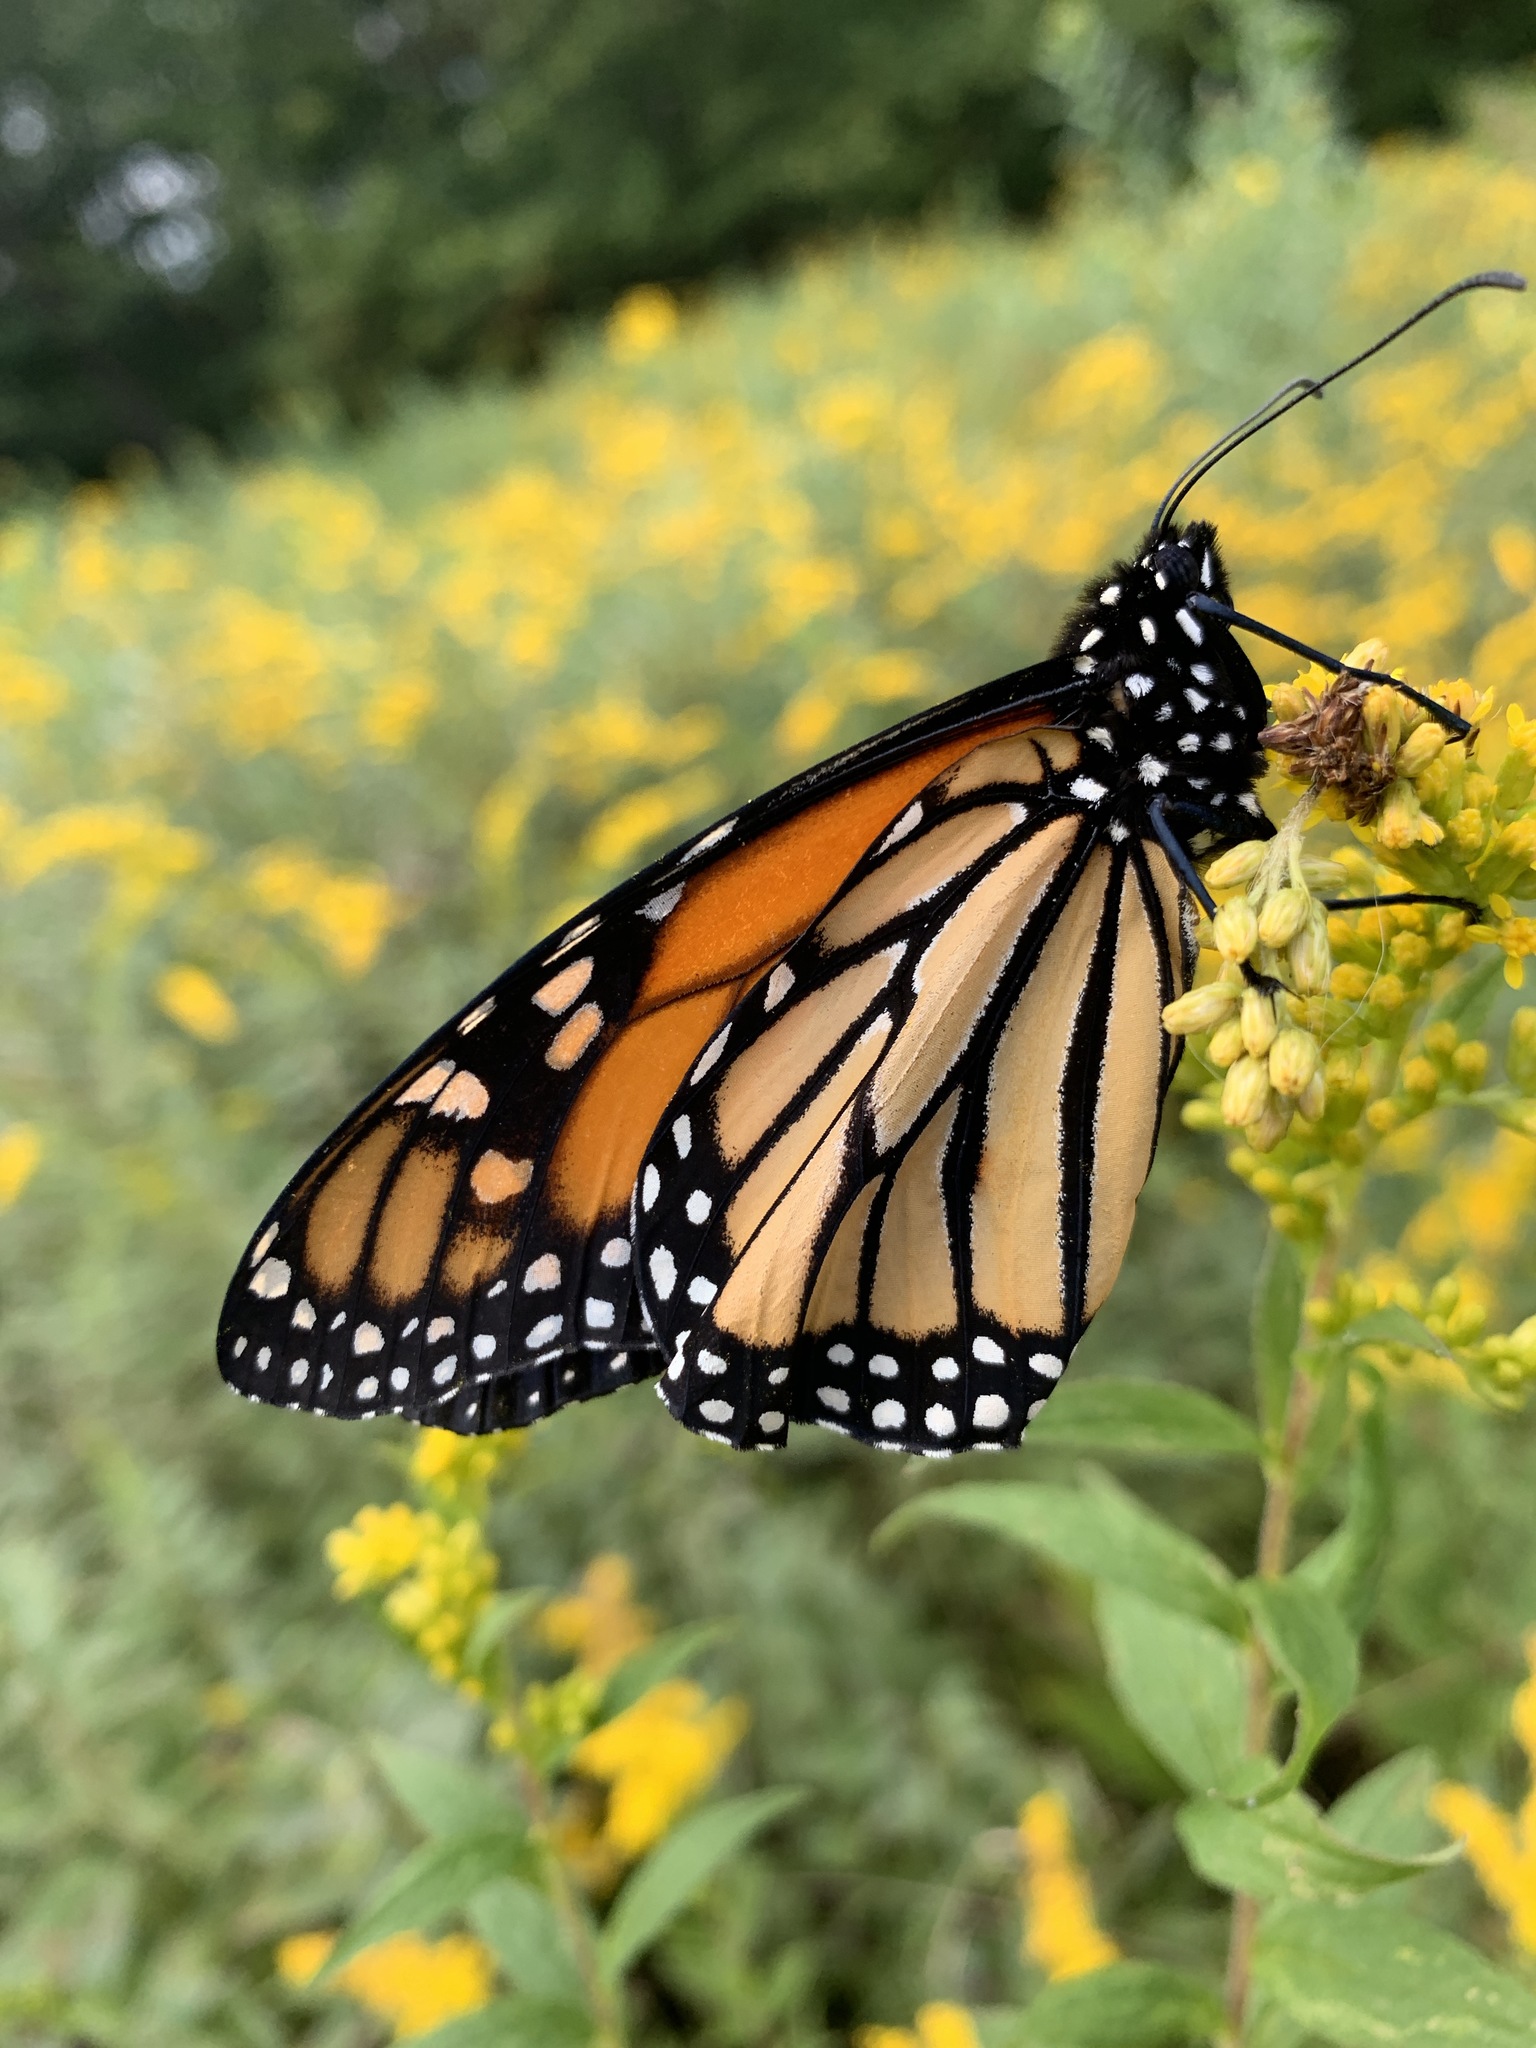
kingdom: Animalia
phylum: Arthropoda
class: Insecta
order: Lepidoptera
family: Nymphalidae
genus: Danaus
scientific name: Danaus plexippus
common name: Monarch
